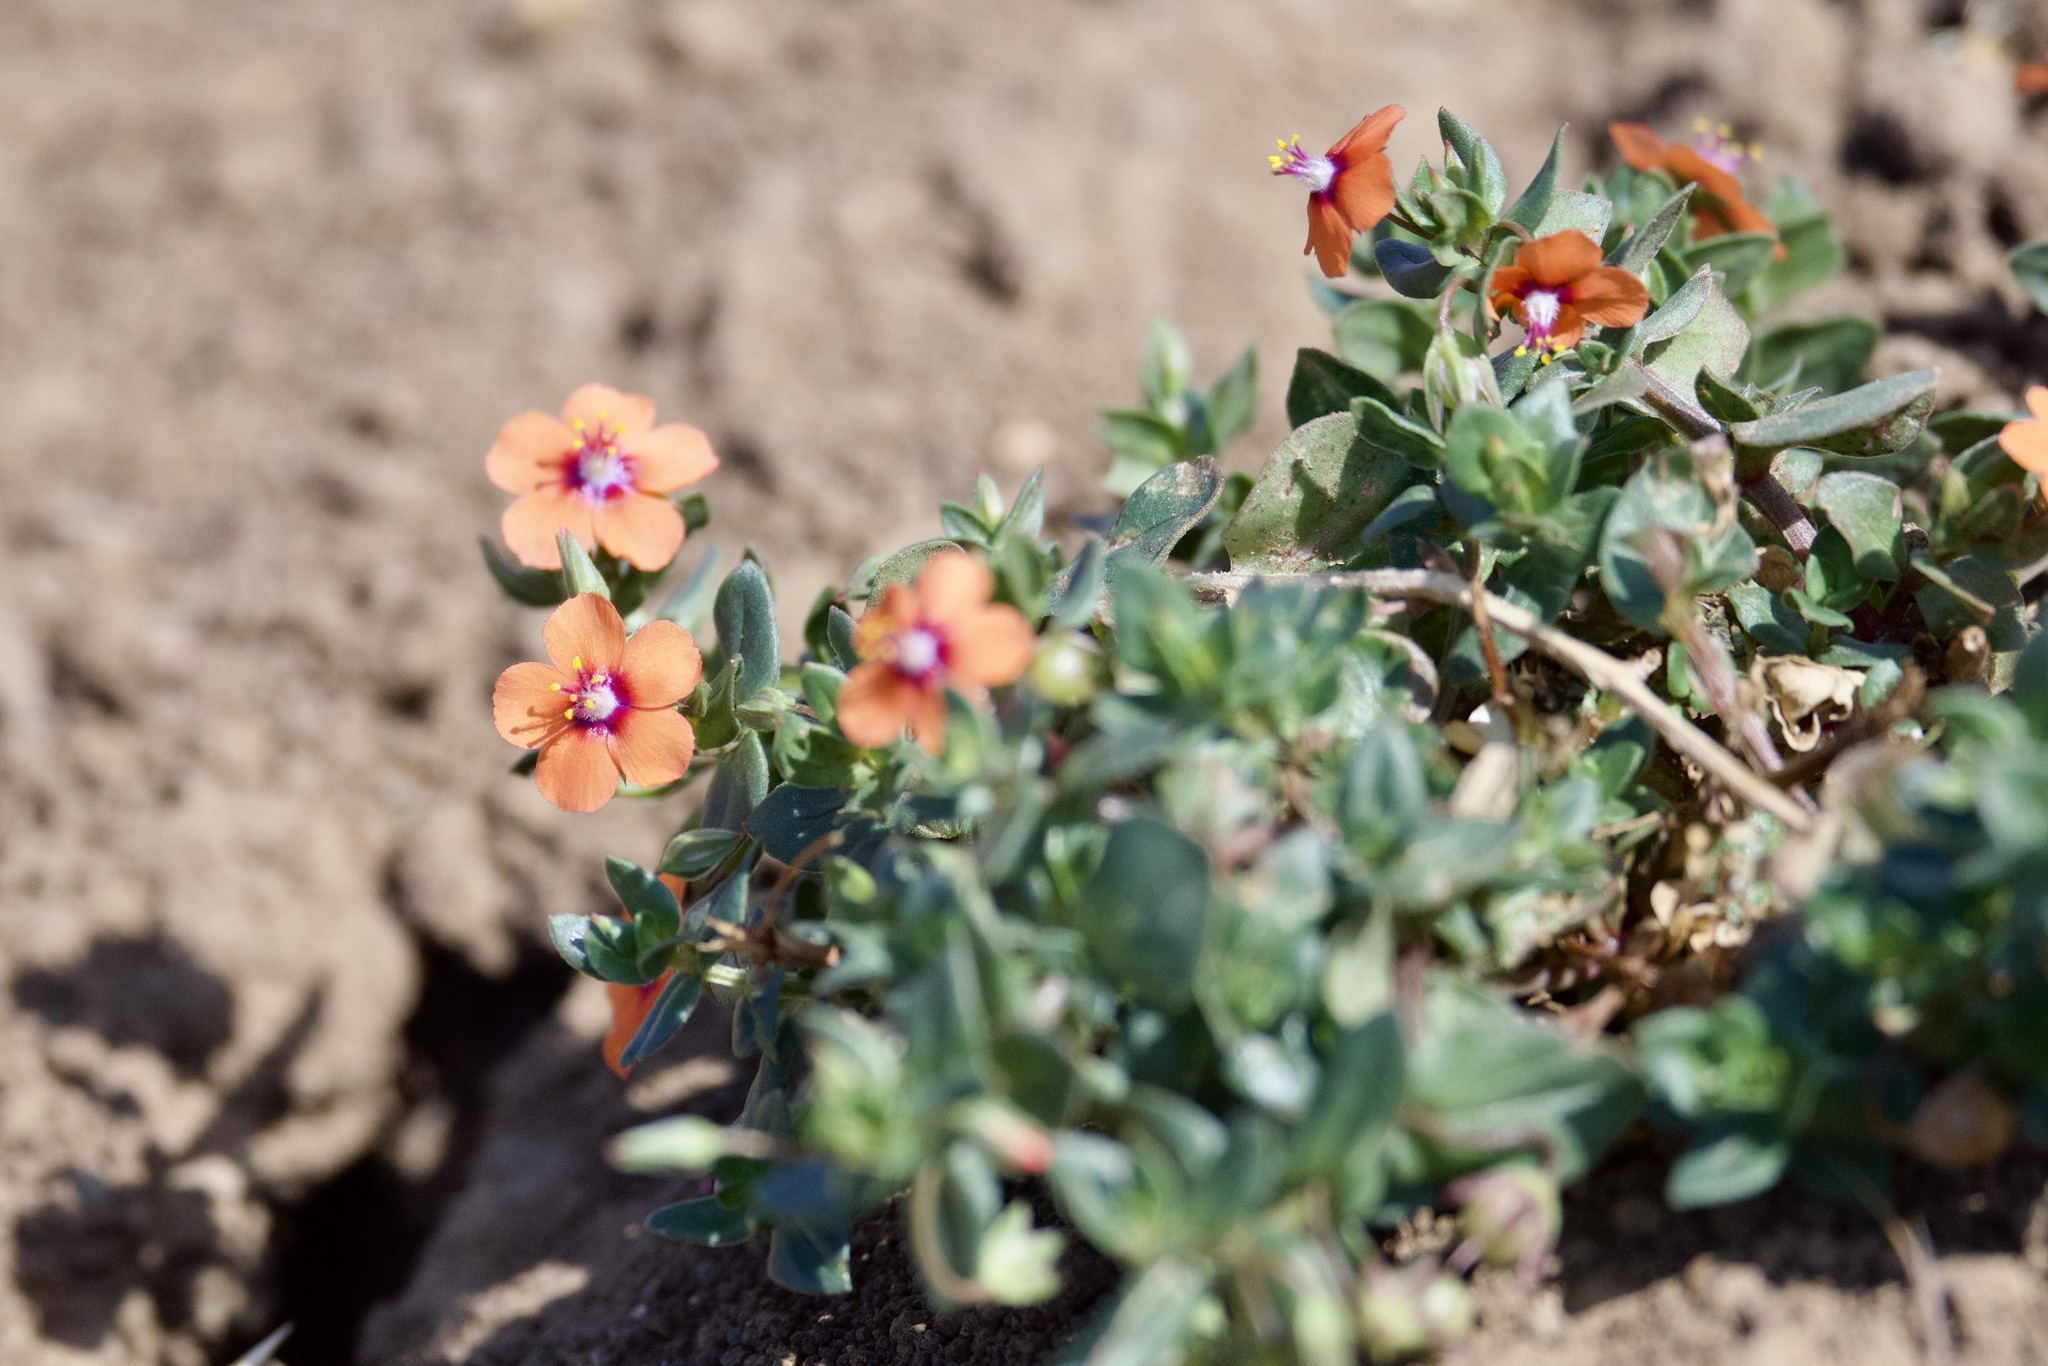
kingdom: Plantae
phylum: Tracheophyta
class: Magnoliopsida
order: Ericales
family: Primulaceae
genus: Lysimachia
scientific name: Lysimachia arvensis
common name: Scarlet pimpernel
